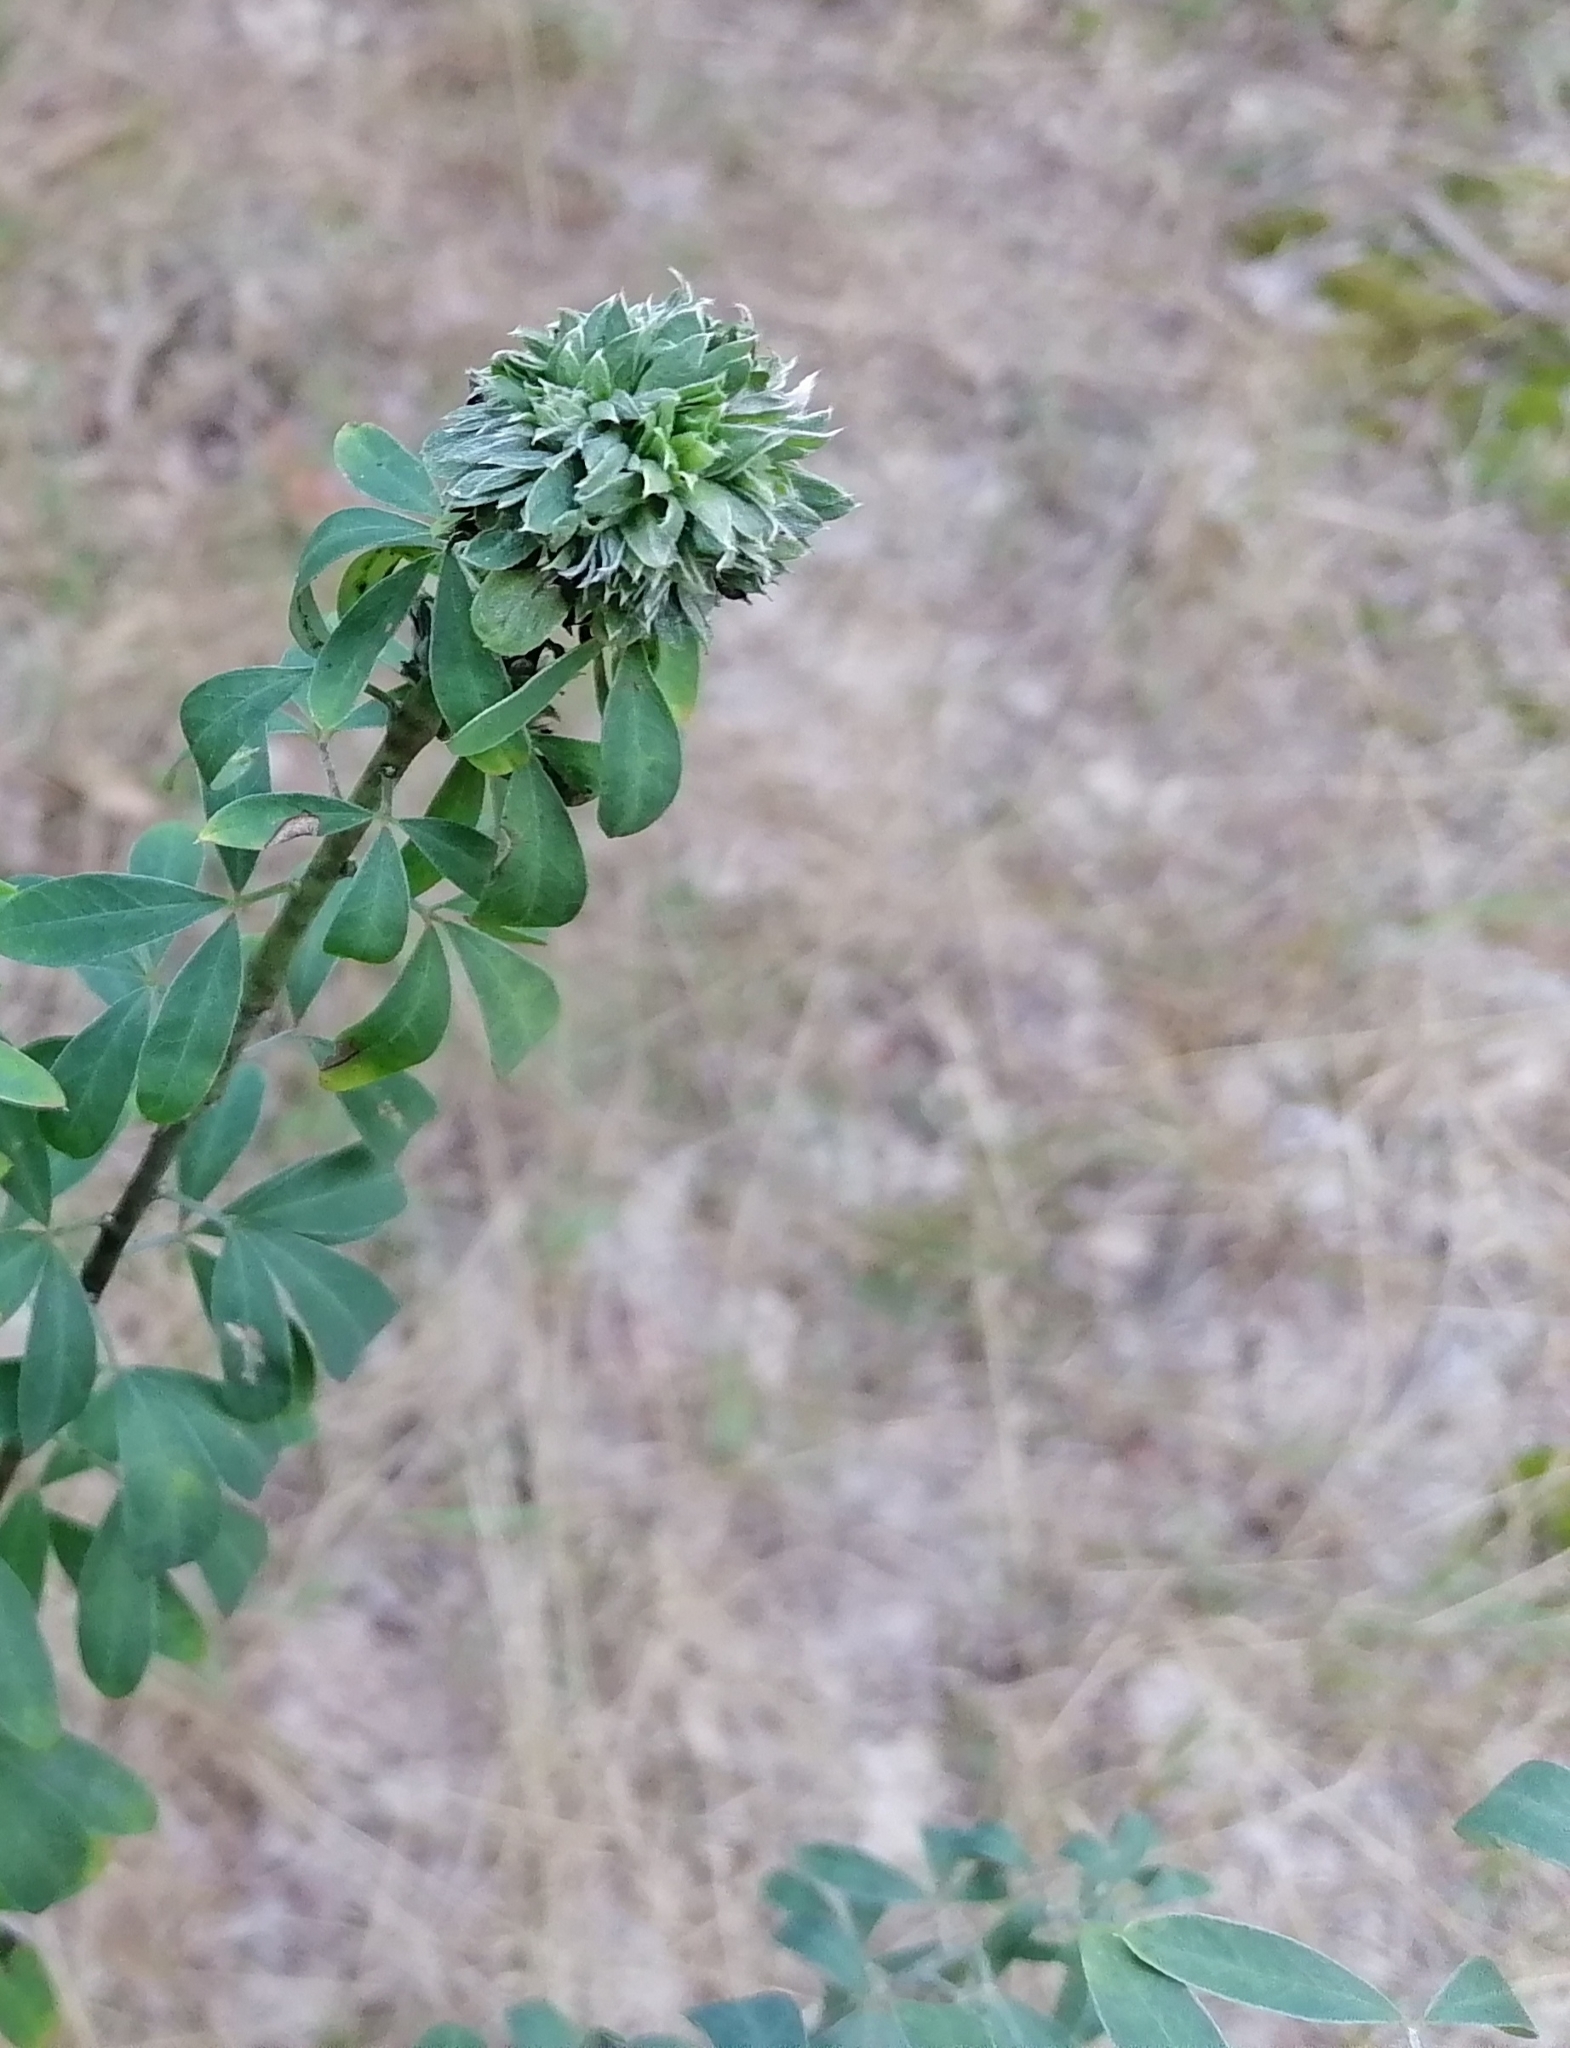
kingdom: Plantae
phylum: Tracheophyta
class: Magnoliopsida
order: Fabales
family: Fabaceae
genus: Chamaecytisus
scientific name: Chamaecytisus ruthenicus
